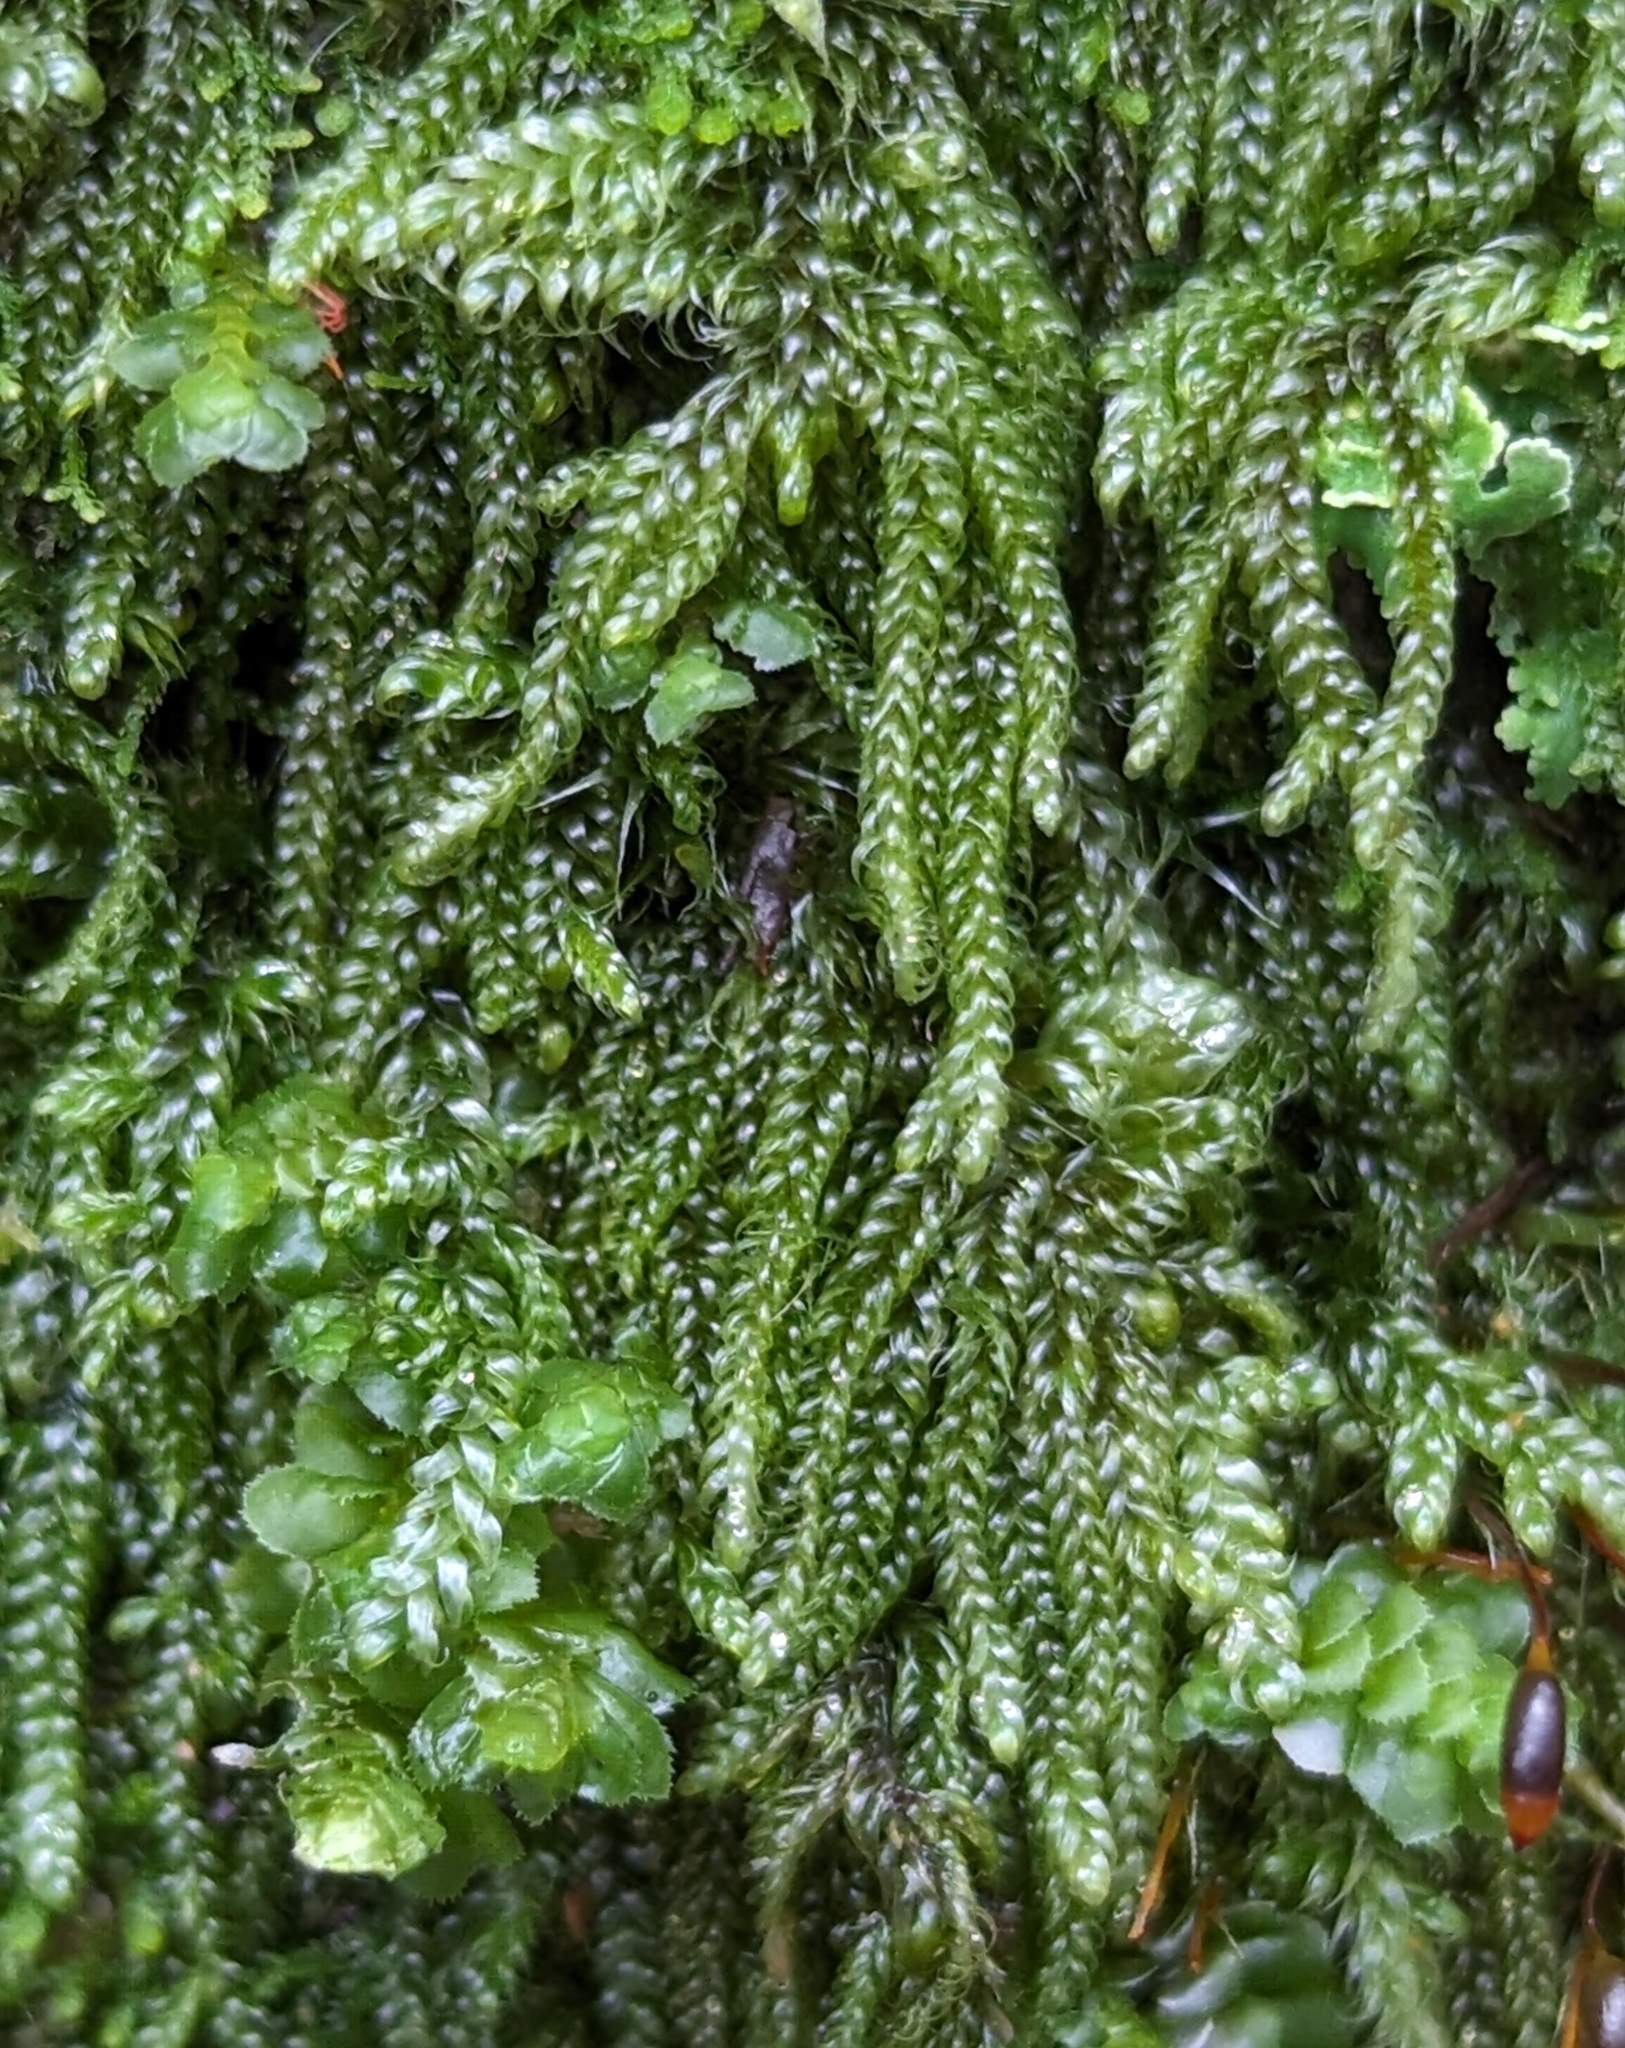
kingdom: Plantae
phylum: Bryophyta
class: Bryopsida
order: Hypnales
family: Pylaisiadelphaceae
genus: Trochophyllohypnum
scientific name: Trochophyllohypnum circinale
